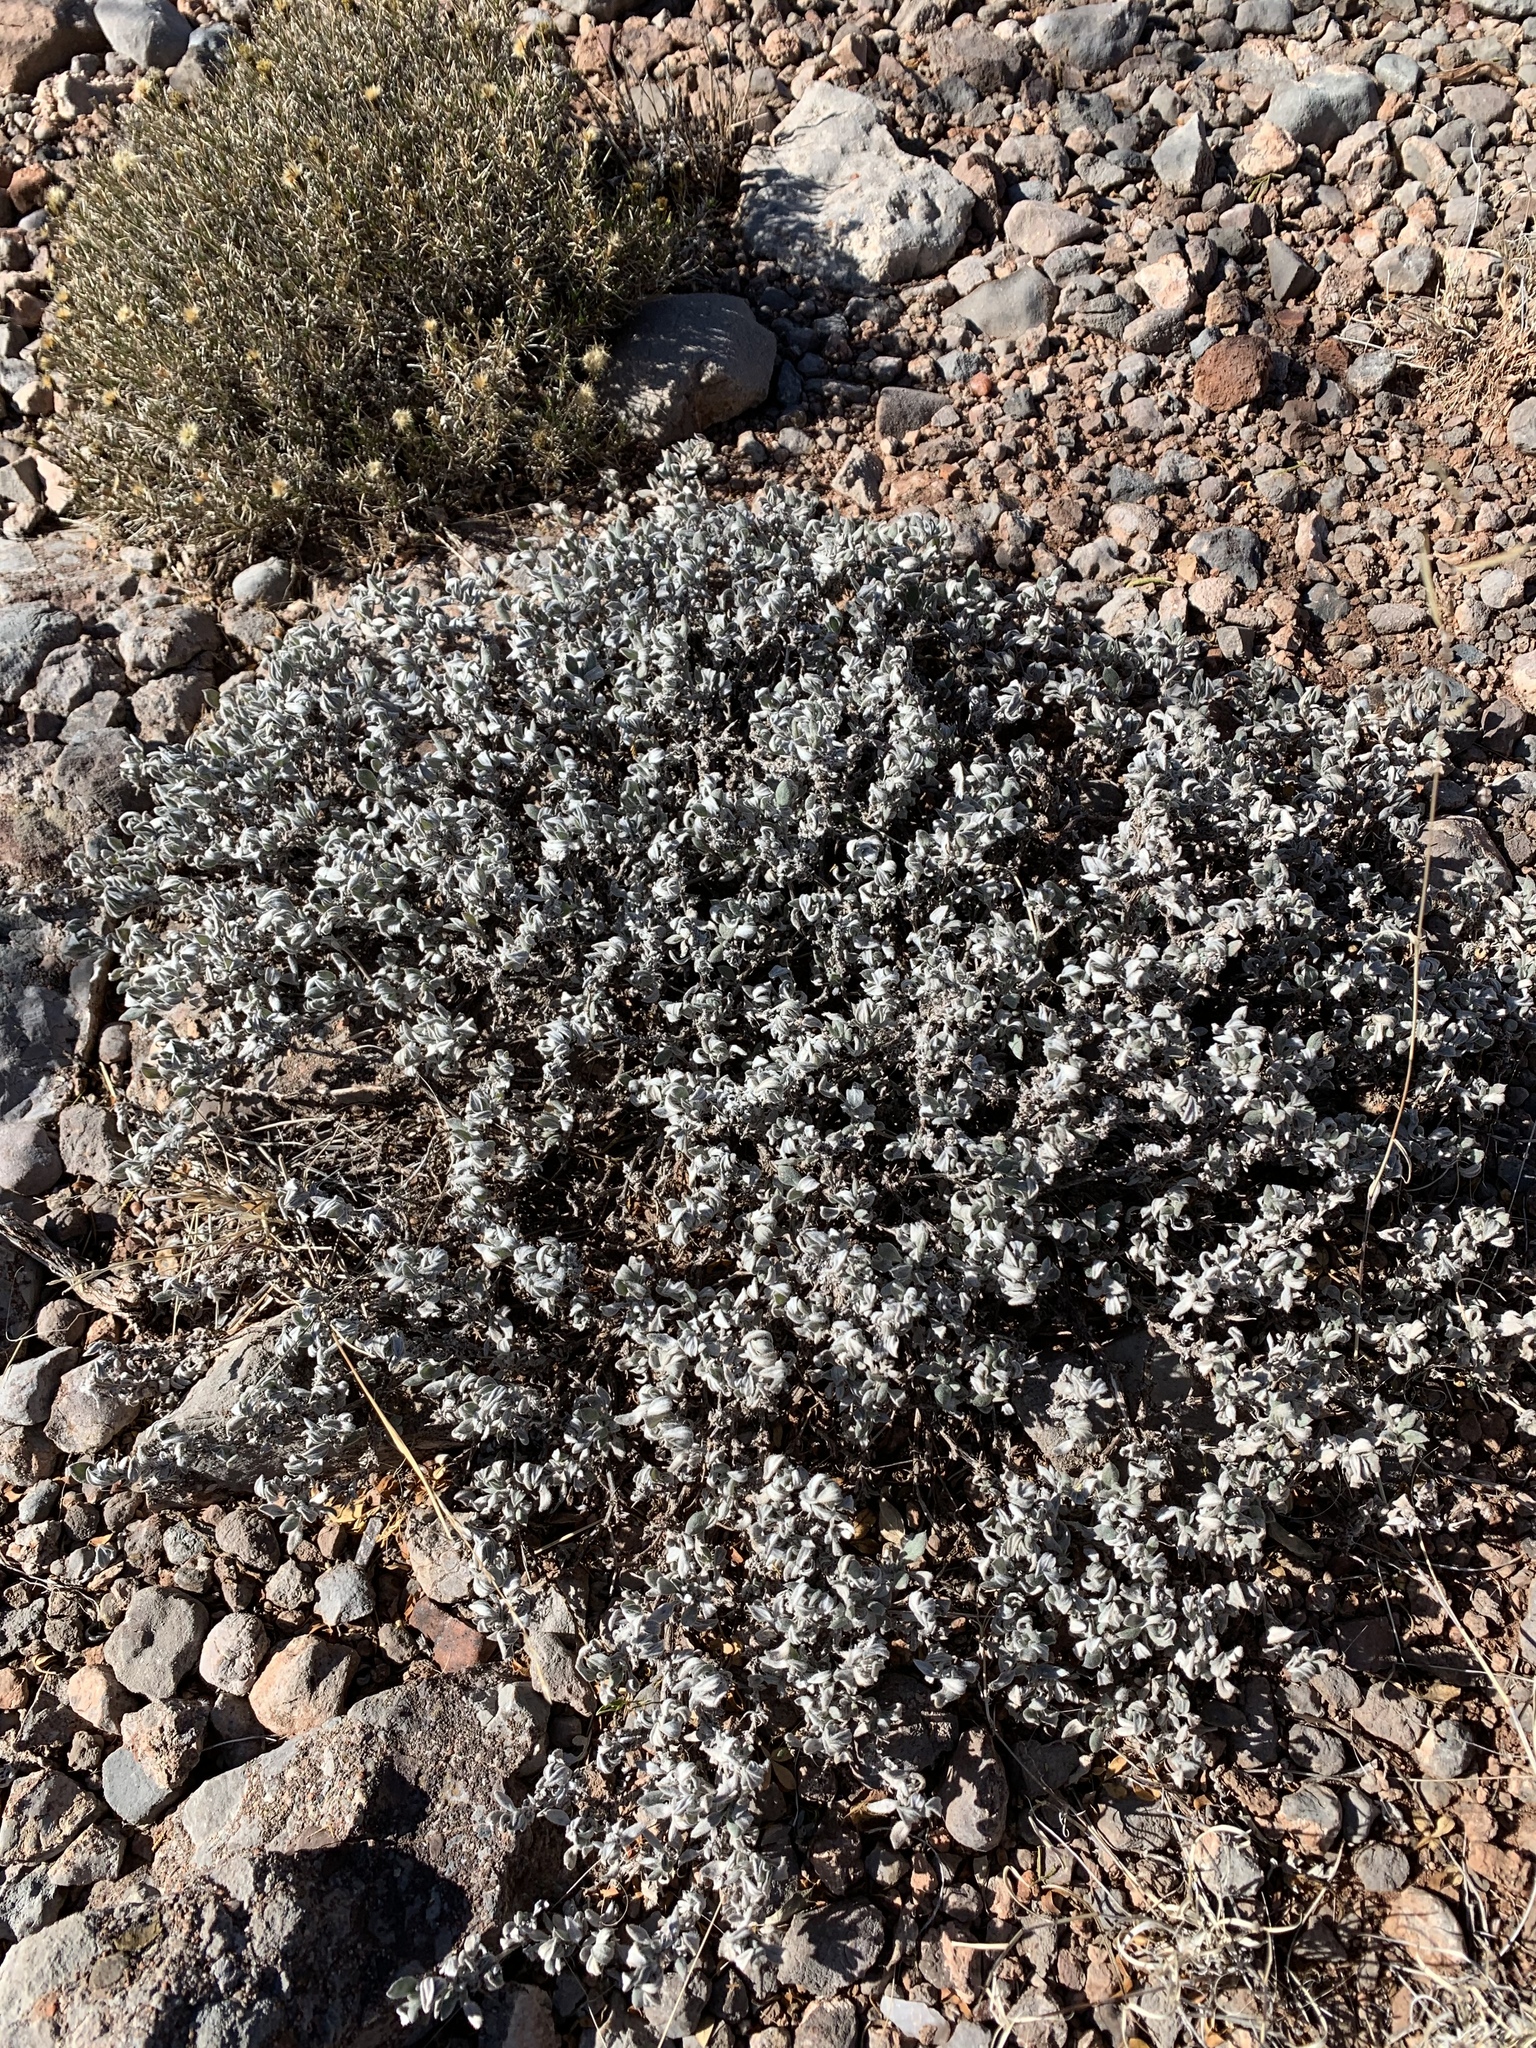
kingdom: Plantae
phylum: Tracheophyta
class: Magnoliopsida
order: Boraginales
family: Ehretiaceae
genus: Tiquilia
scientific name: Tiquilia canescens
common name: Hairy tiquilia
